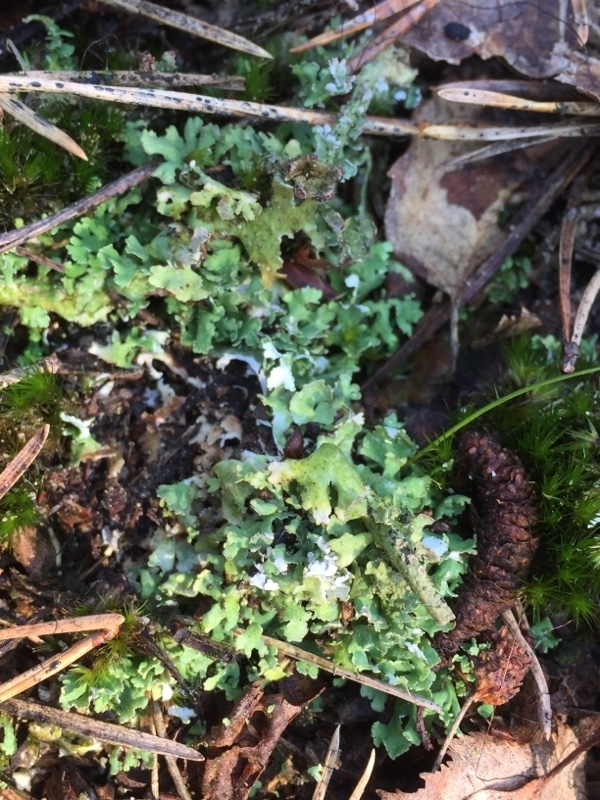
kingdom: Fungi
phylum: Ascomycota
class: Lecanoromycetes
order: Lecanorales
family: Cladoniaceae
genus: Cladonia
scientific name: Cladonia foliacea
